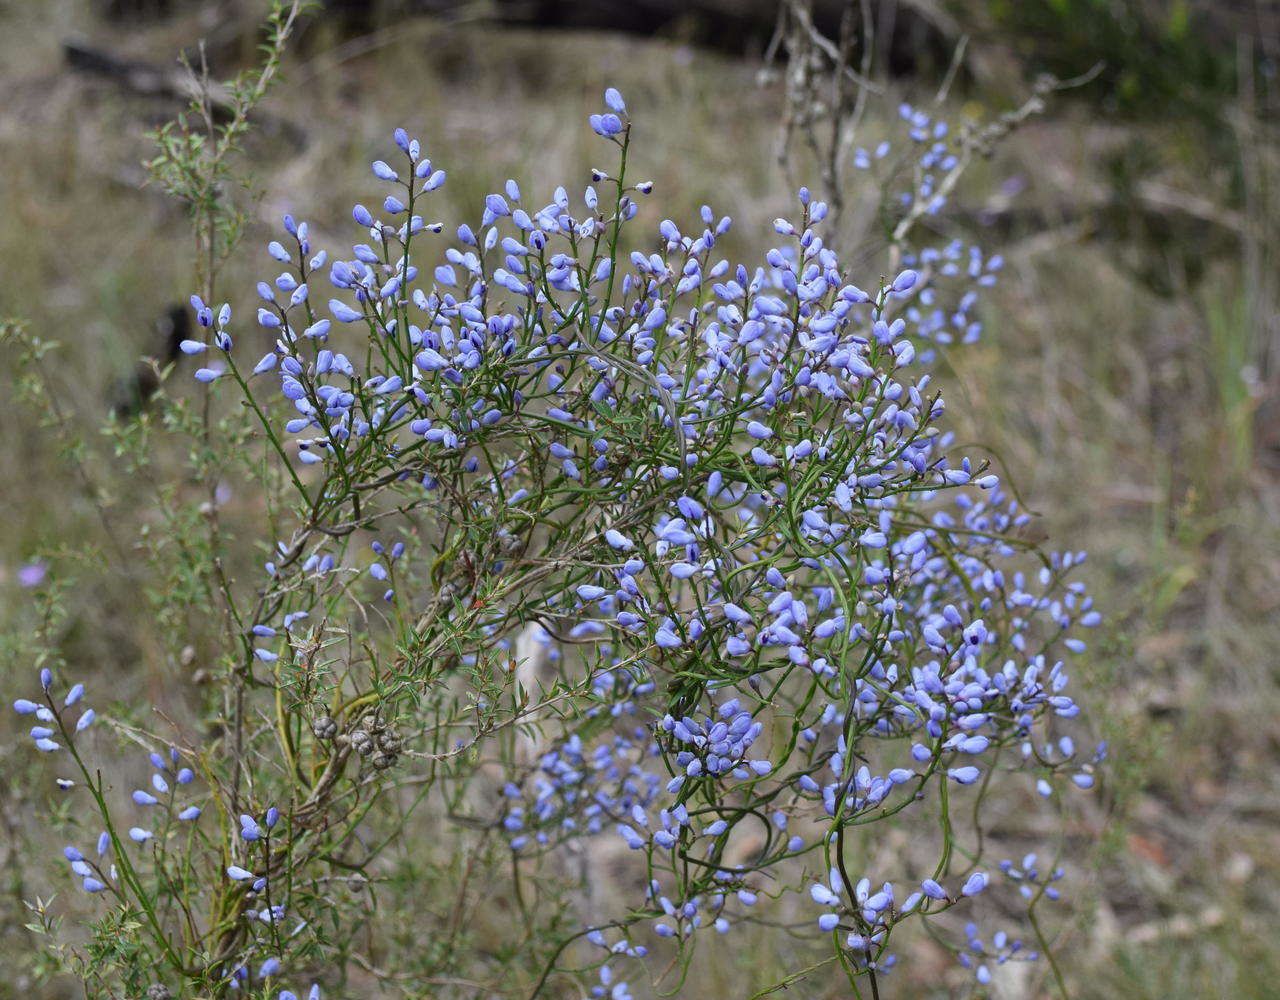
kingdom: Plantae
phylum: Tracheophyta
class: Magnoliopsida
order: Fabales
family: Polygalaceae
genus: Comesperma
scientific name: Comesperma volubile
